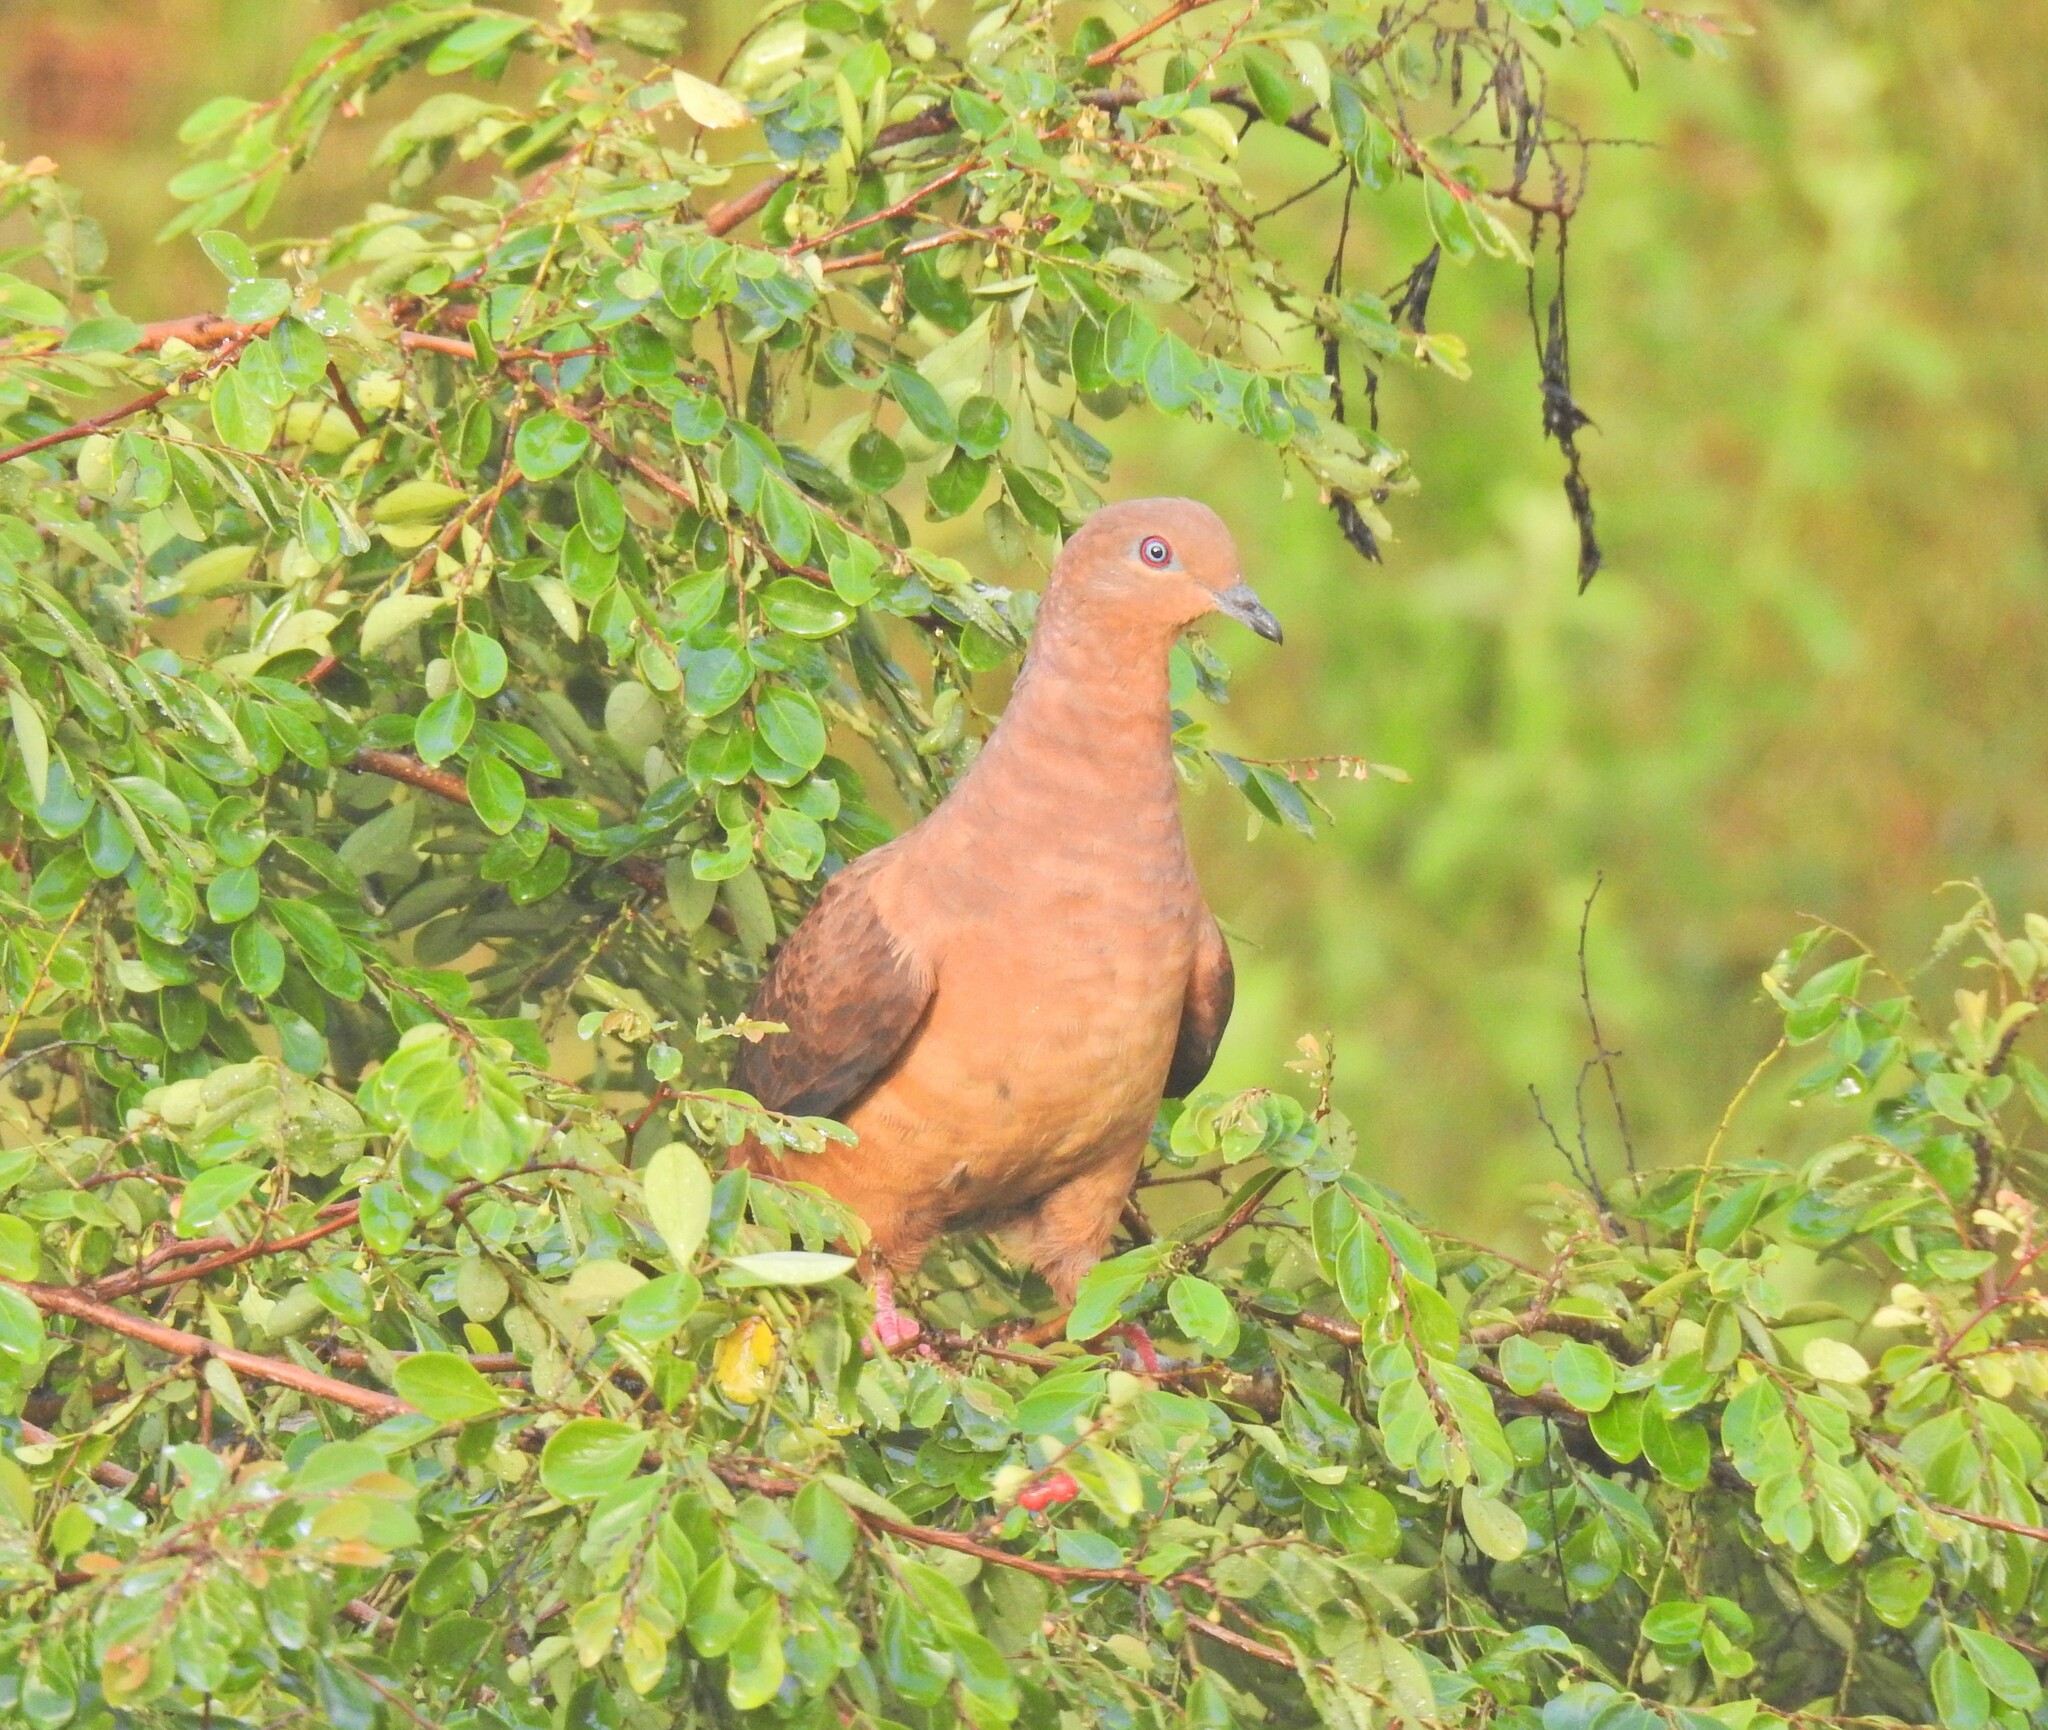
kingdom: Animalia
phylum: Chordata
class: Aves
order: Columbiformes
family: Columbidae
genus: Macropygia
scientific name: Macropygia phasianella
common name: Brown cuckoo-dove
